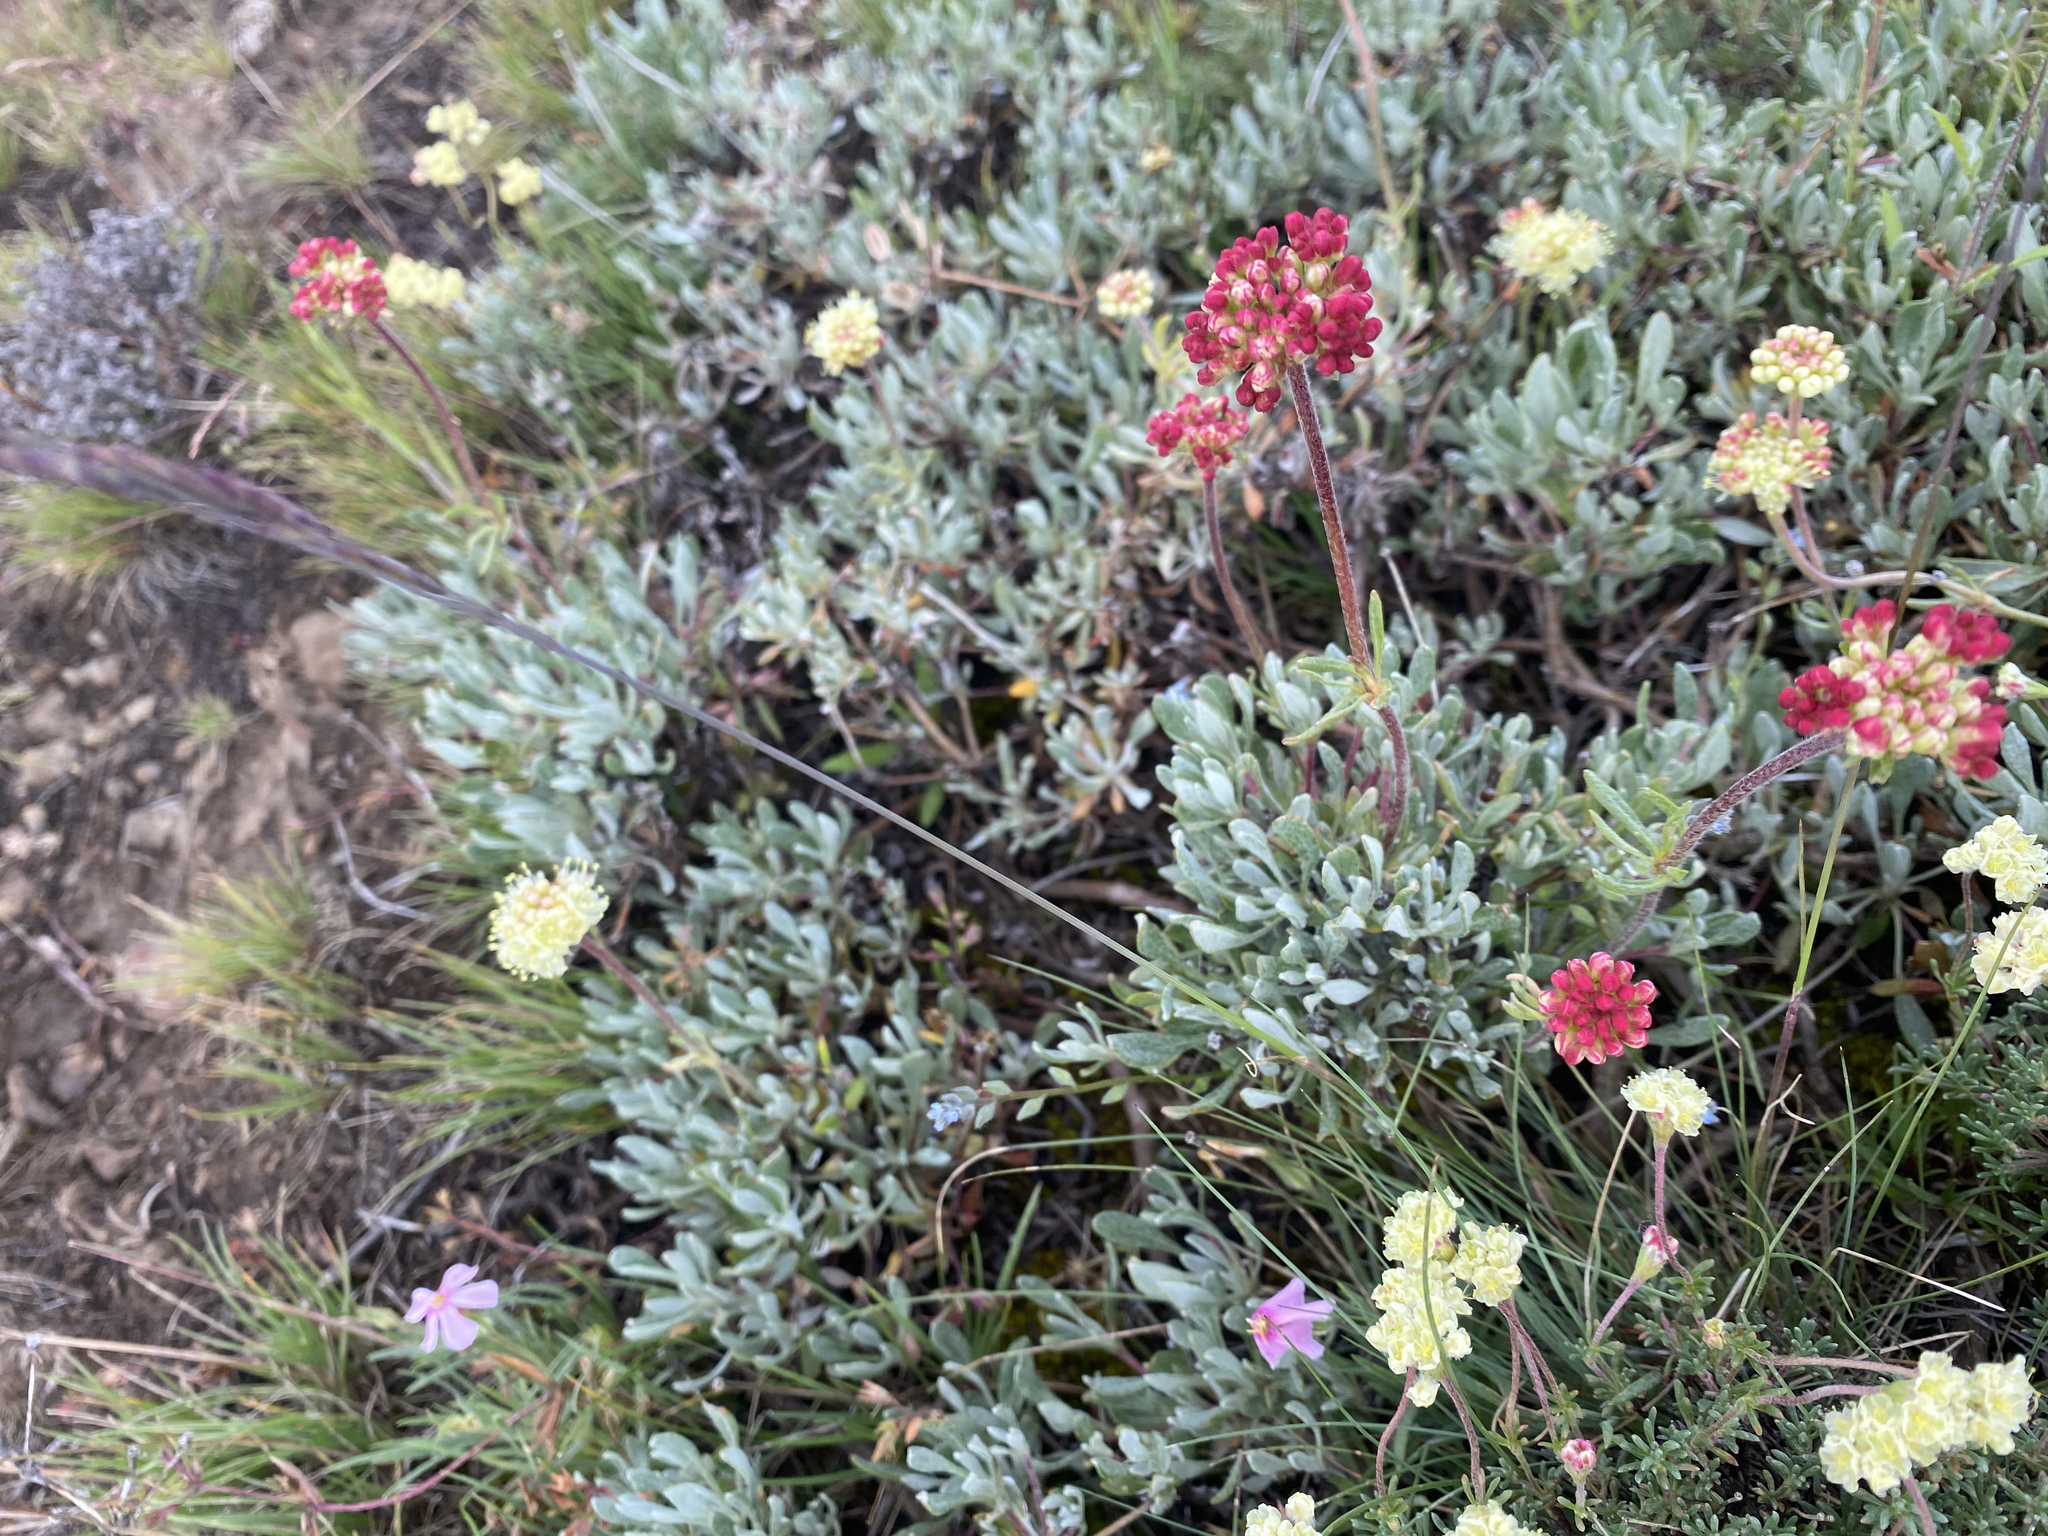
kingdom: Plantae
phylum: Tracheophyta
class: Magnoliopsida
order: Caryophyllales
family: Polygonaceae
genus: Eriogonum
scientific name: Eriogonum douglasii
